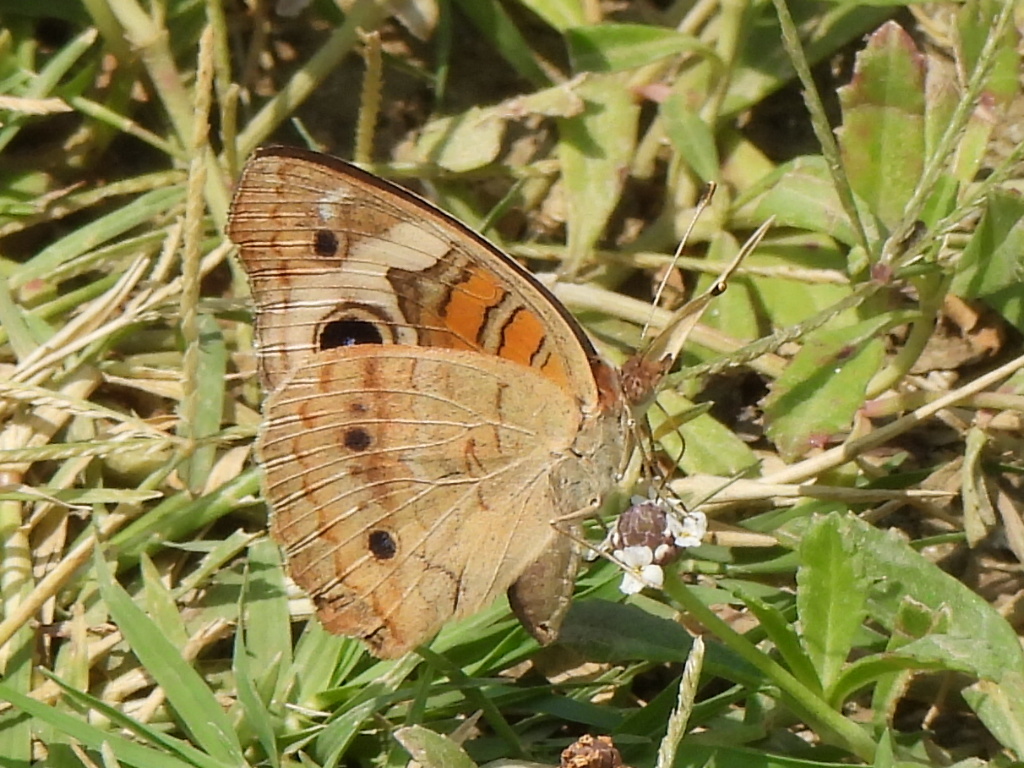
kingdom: Animalia
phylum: Arthropoda
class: Insecta
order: Lepidoptera
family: Nymphalidae
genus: Junonia
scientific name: Junonia coenia
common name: Common buckeye
